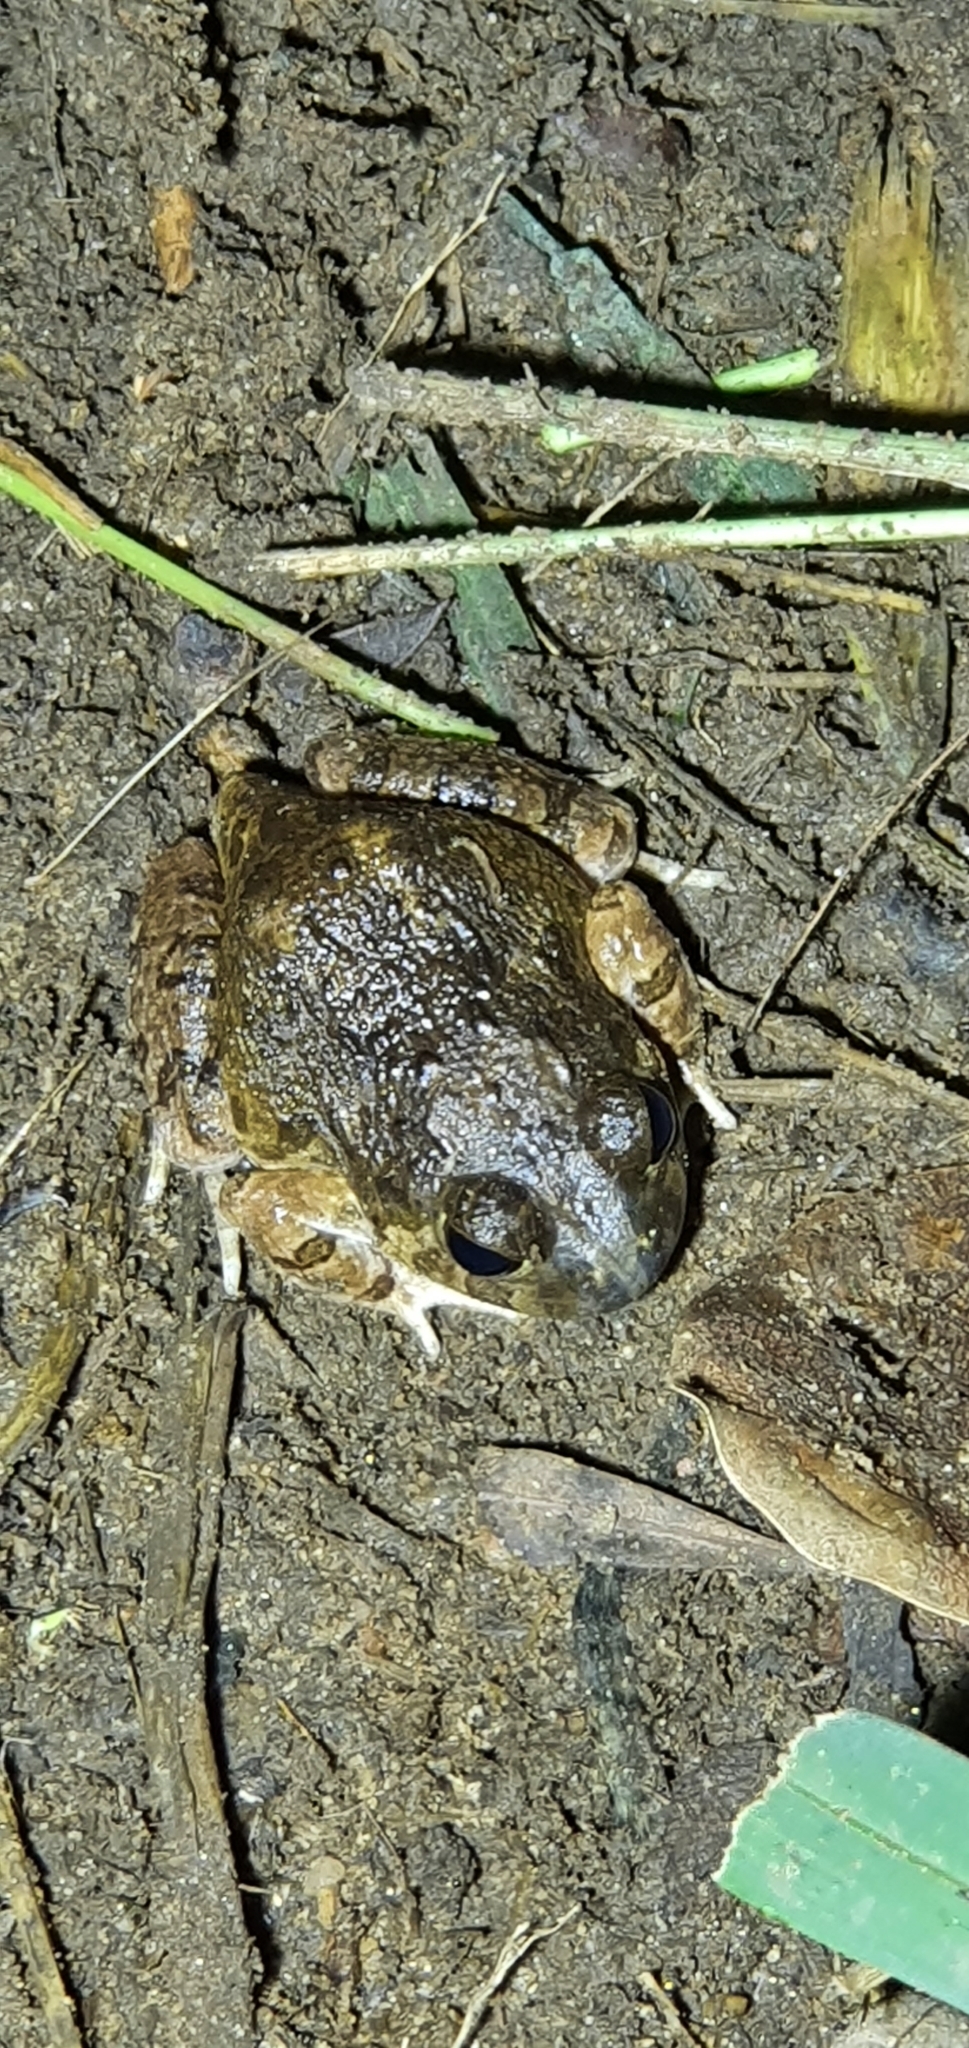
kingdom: Animalia
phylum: Chordata
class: Amphibia
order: Anura
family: Limnodynastidae
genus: Platyplectrum
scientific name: Platyplectrum ornatum
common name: Ornate burrowing frog
